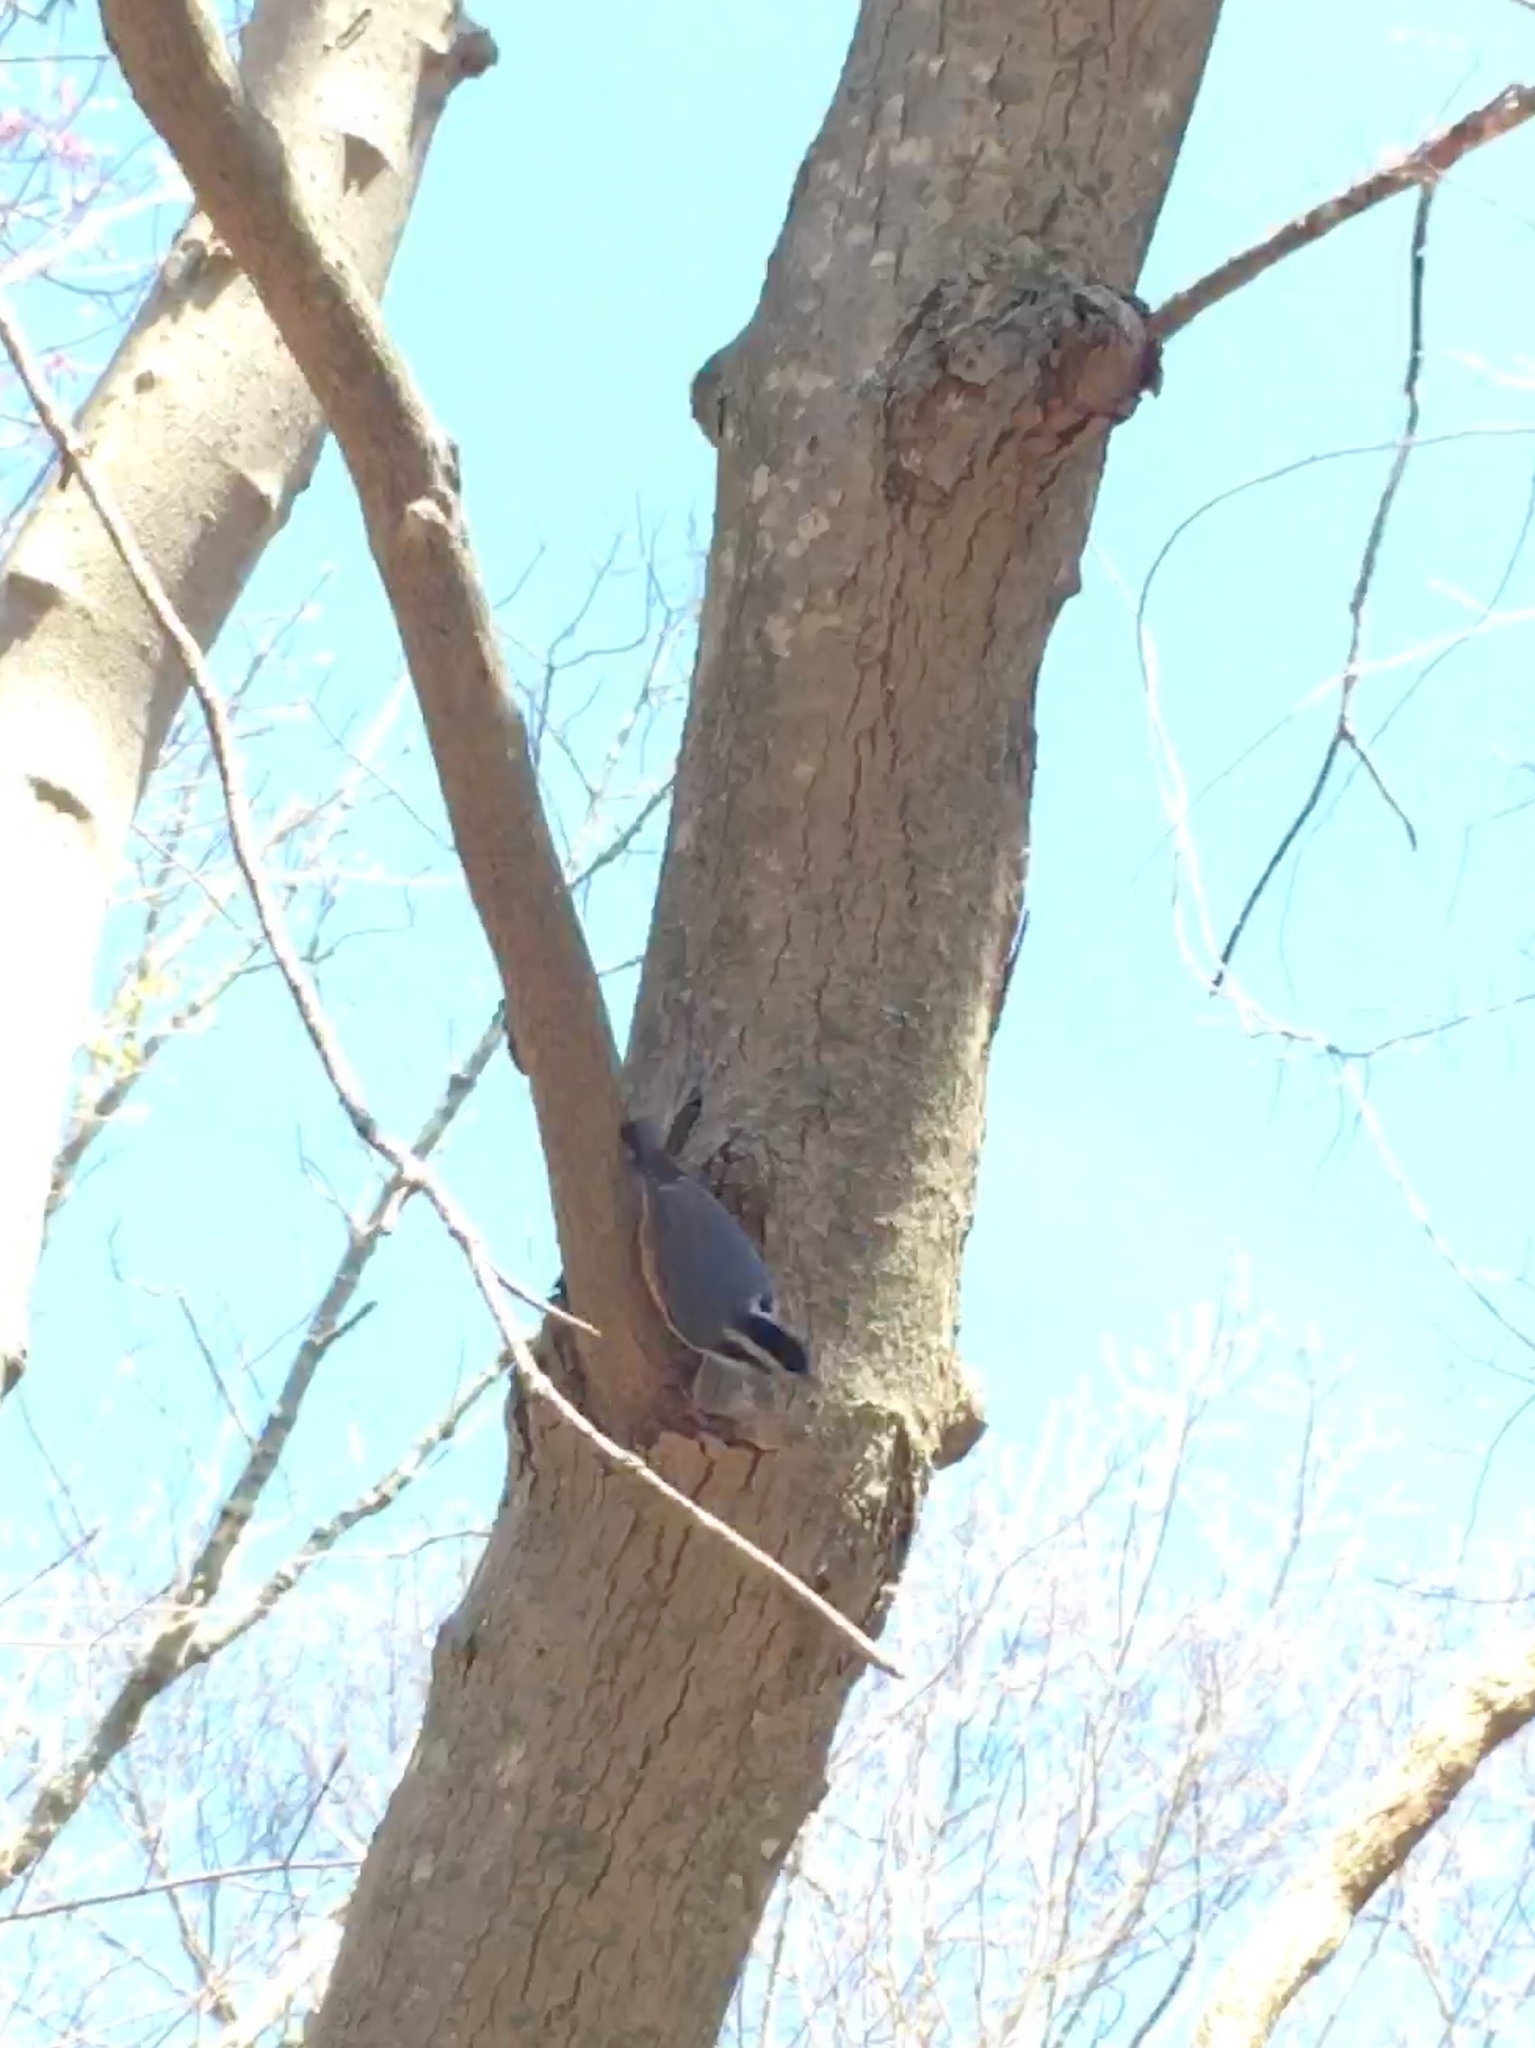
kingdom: Animalia
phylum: Chordata
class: Aves
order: Passeriformes
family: Sittidae
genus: Sitta
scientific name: Sitta canadensis
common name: Red-breasted nuthatch
